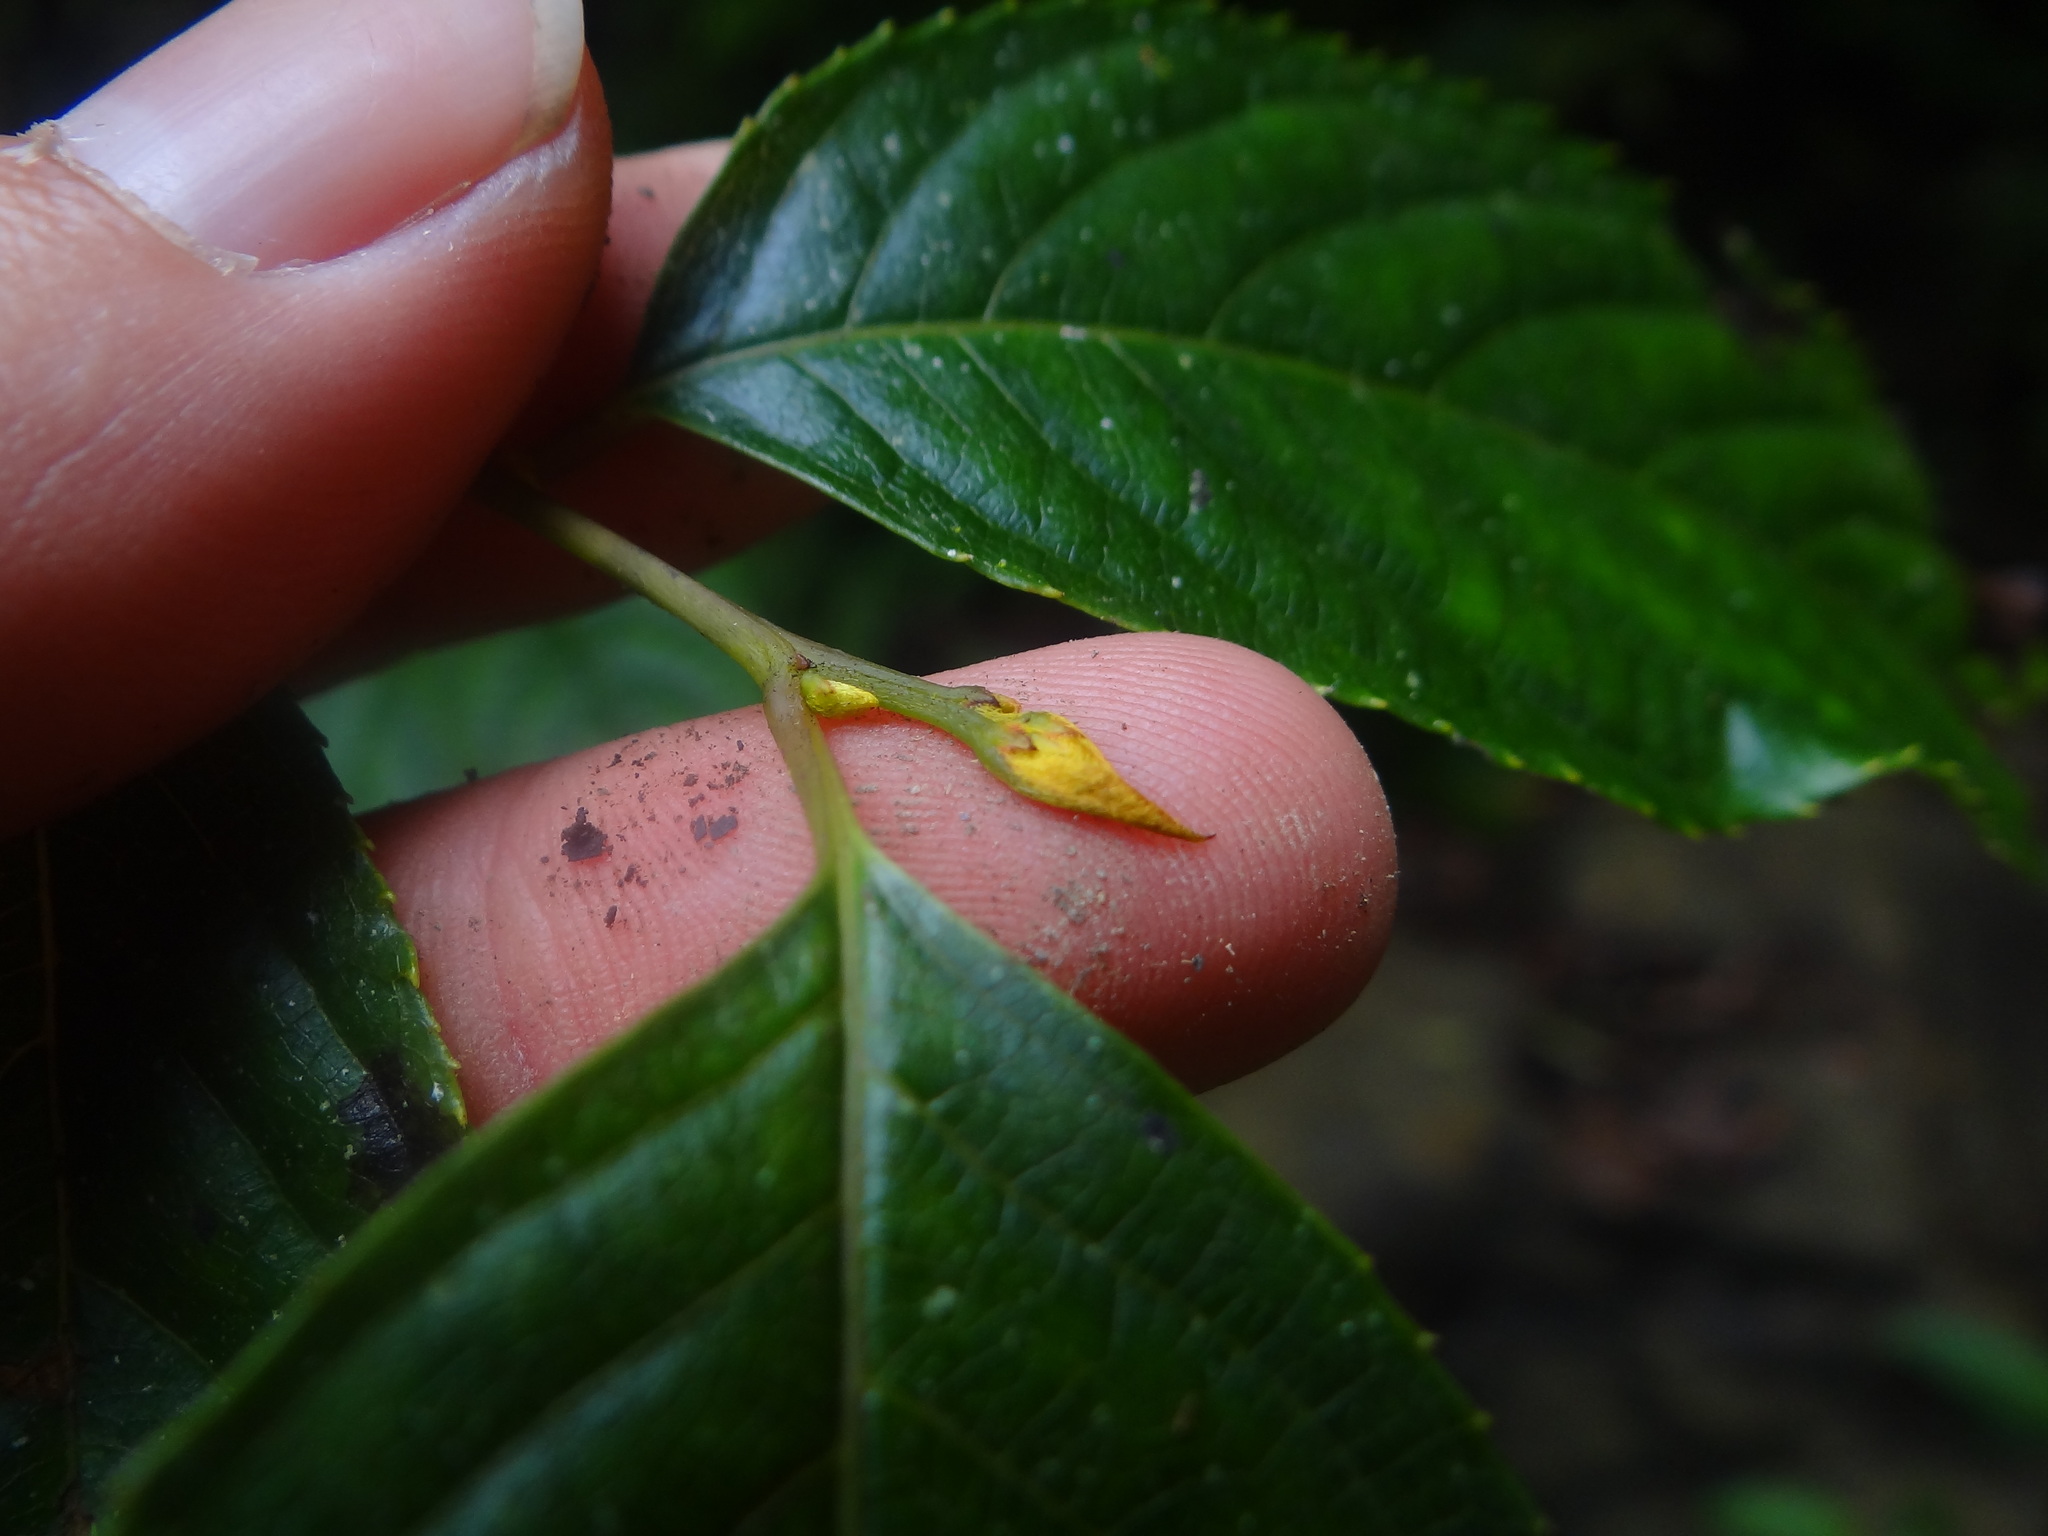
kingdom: Plantae
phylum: Tracheophyta
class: Magnoliopsida
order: Huerteales
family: Dipentodontaceae
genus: Perrottetia
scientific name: Perrottetia arisanensis
